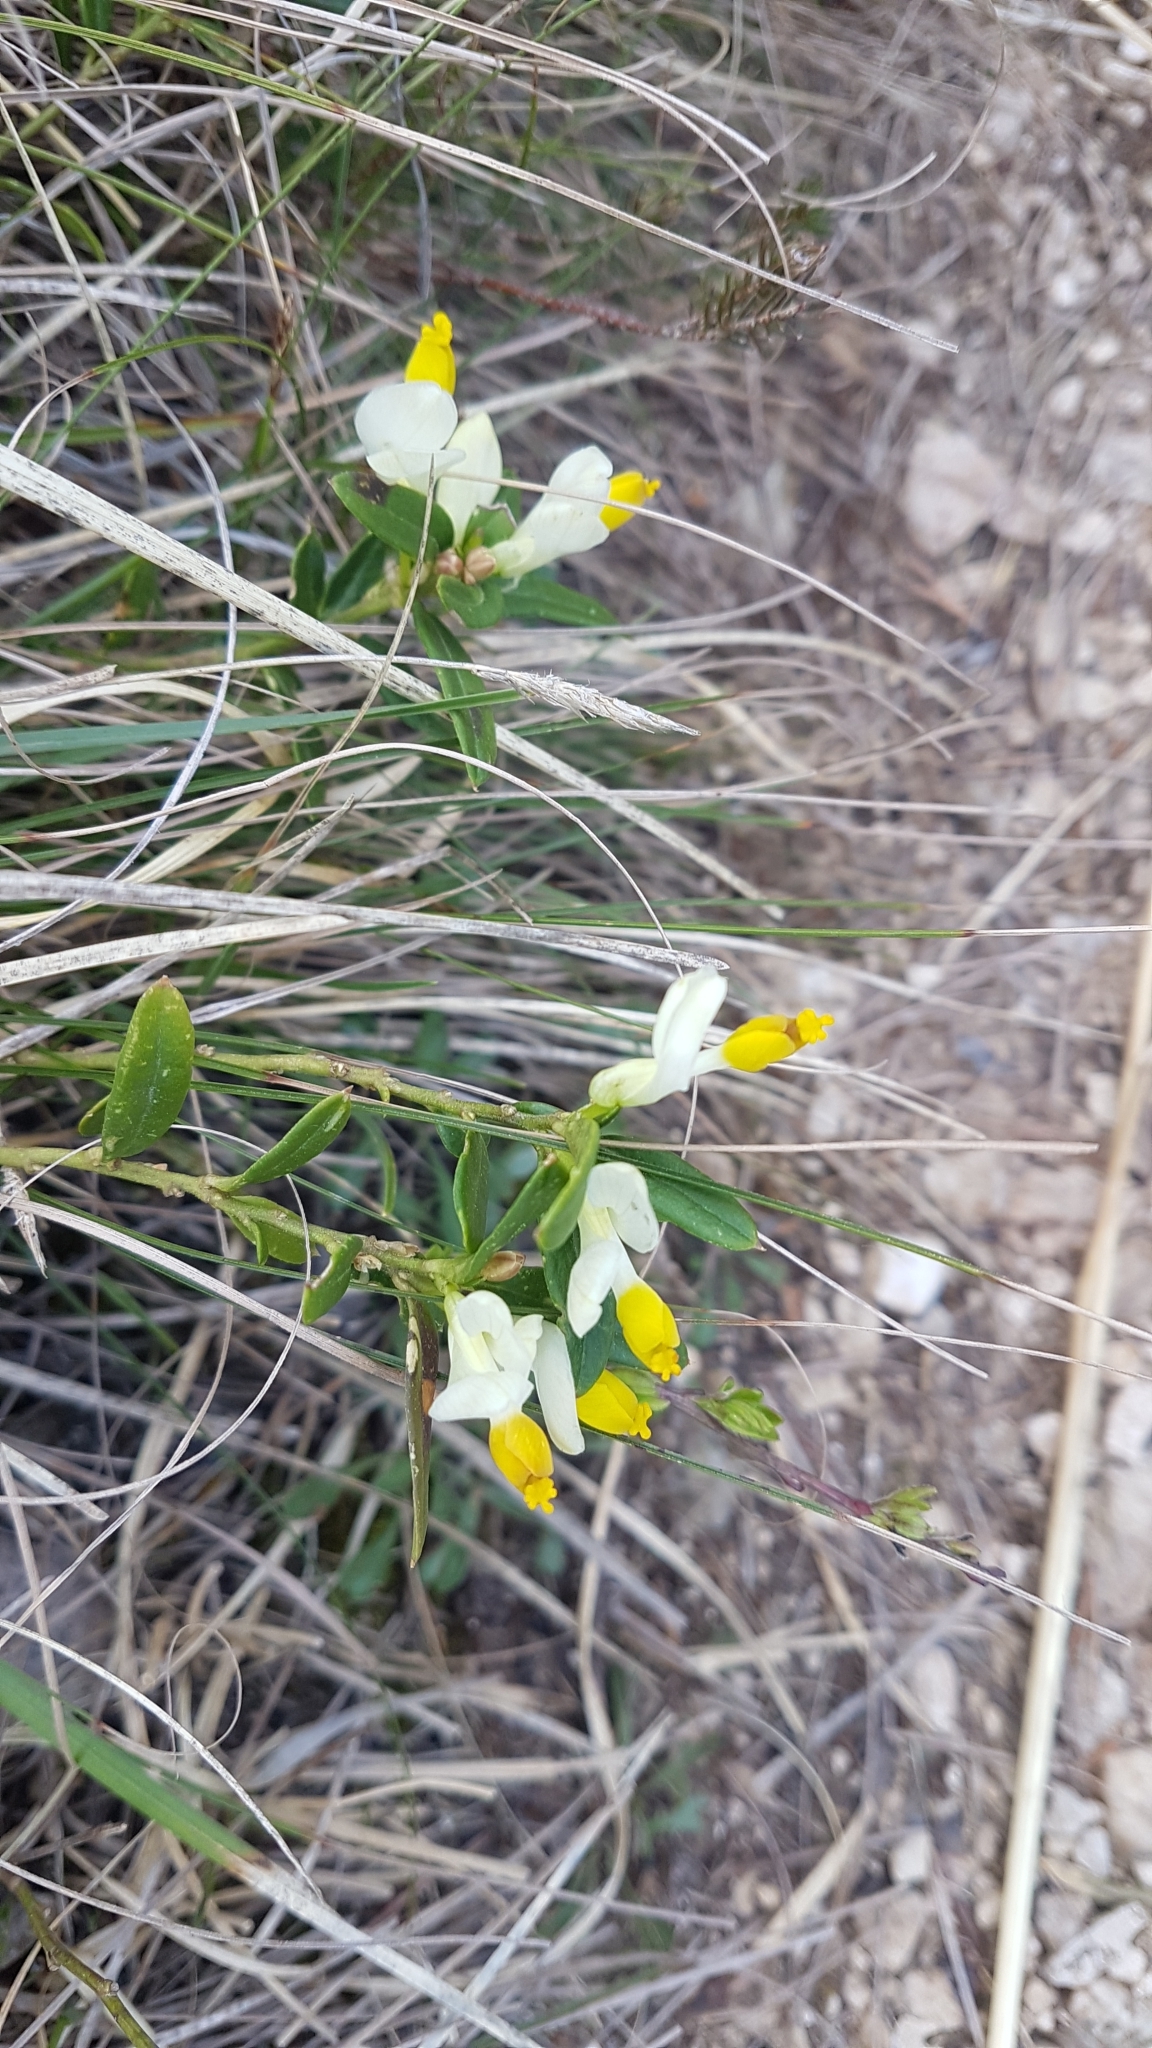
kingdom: Plantae
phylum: Tracheophyta
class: Magnoliopsida
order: Fabales
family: Polygalaceae
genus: Polygaloides
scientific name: Polygaloides chamaebuxus
